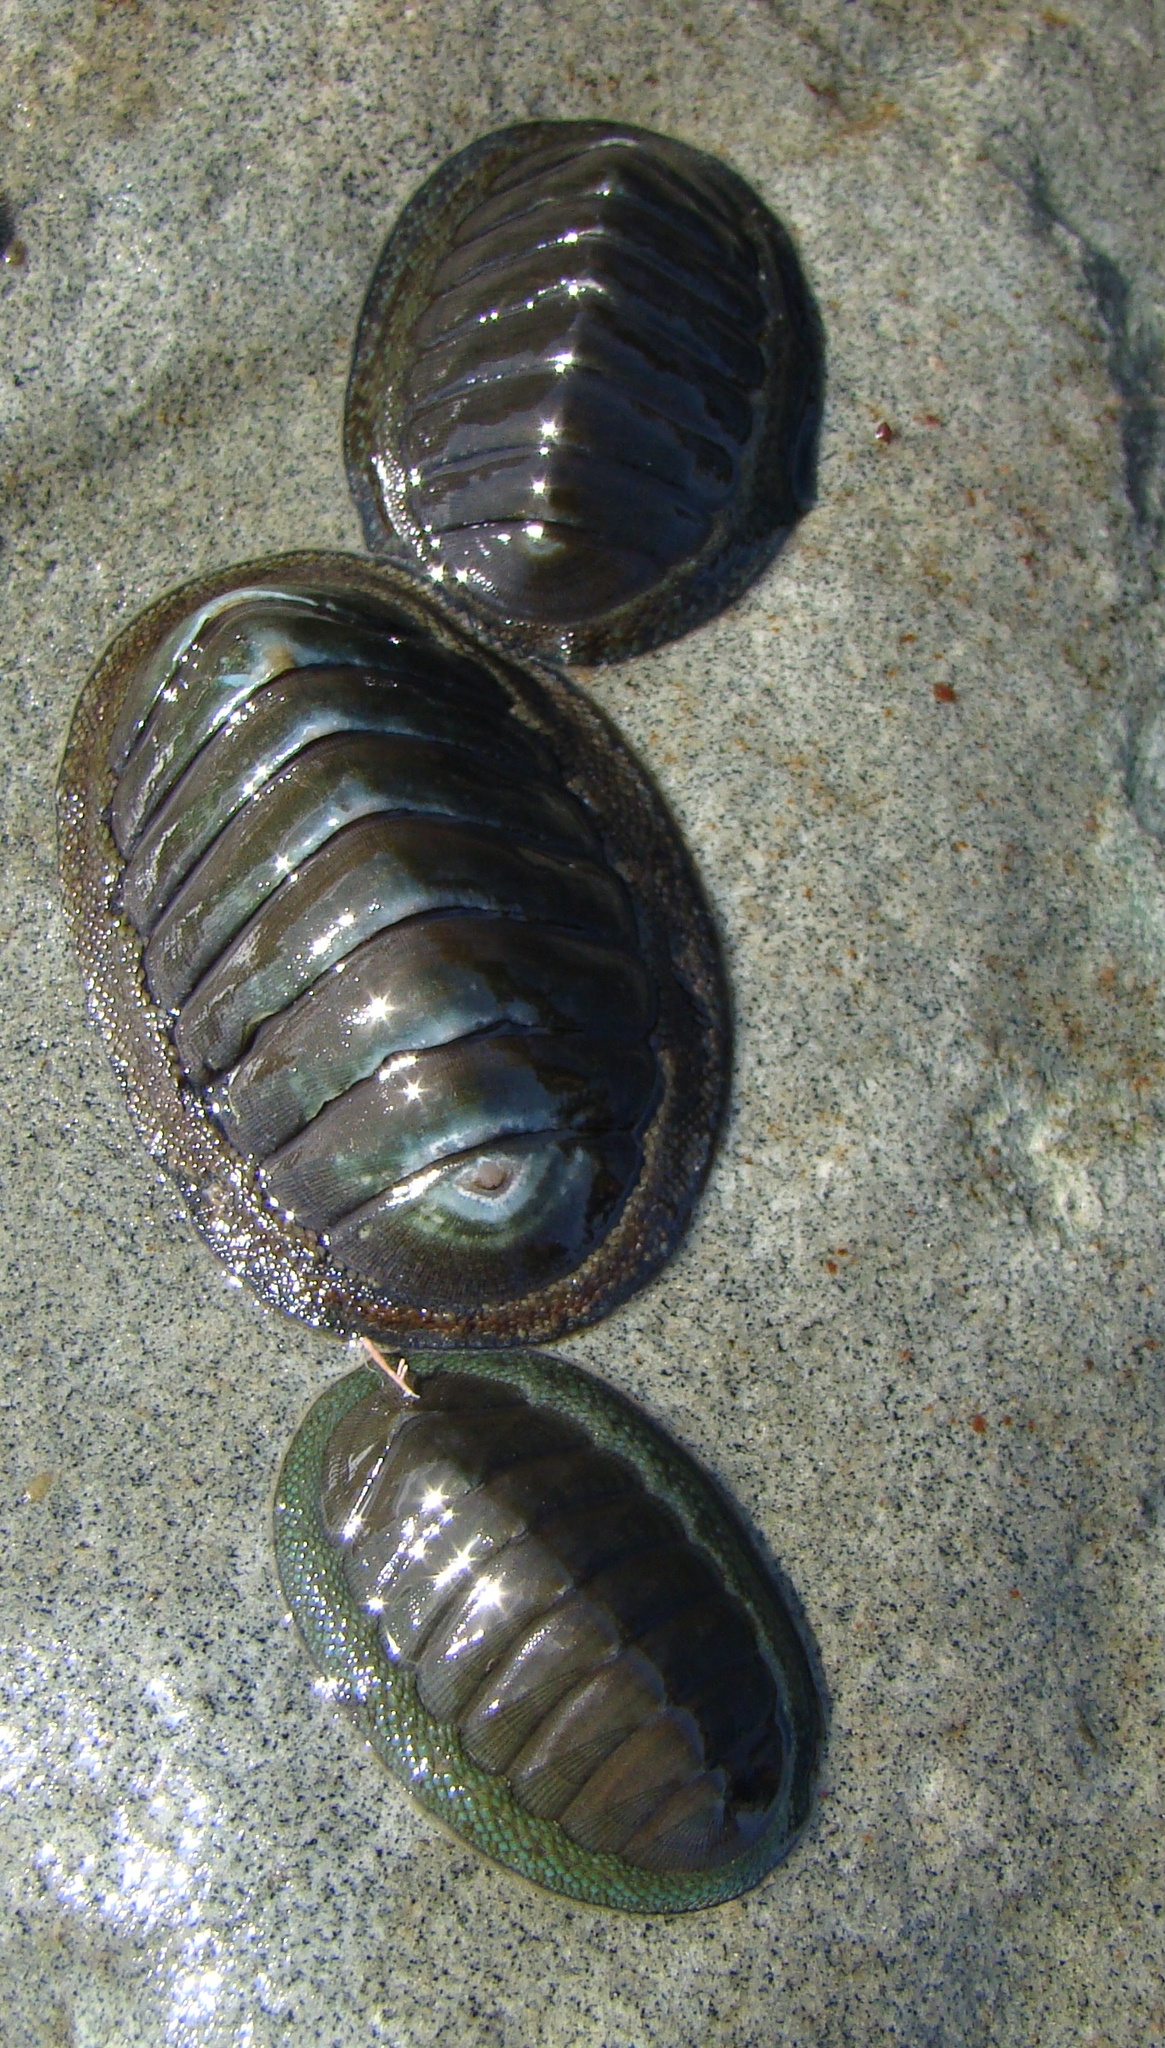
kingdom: Animalia
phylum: Mollusca
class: Polyplacophora
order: Chitonida
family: Chitonidae
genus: Chiton
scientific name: Chiton glaucus
